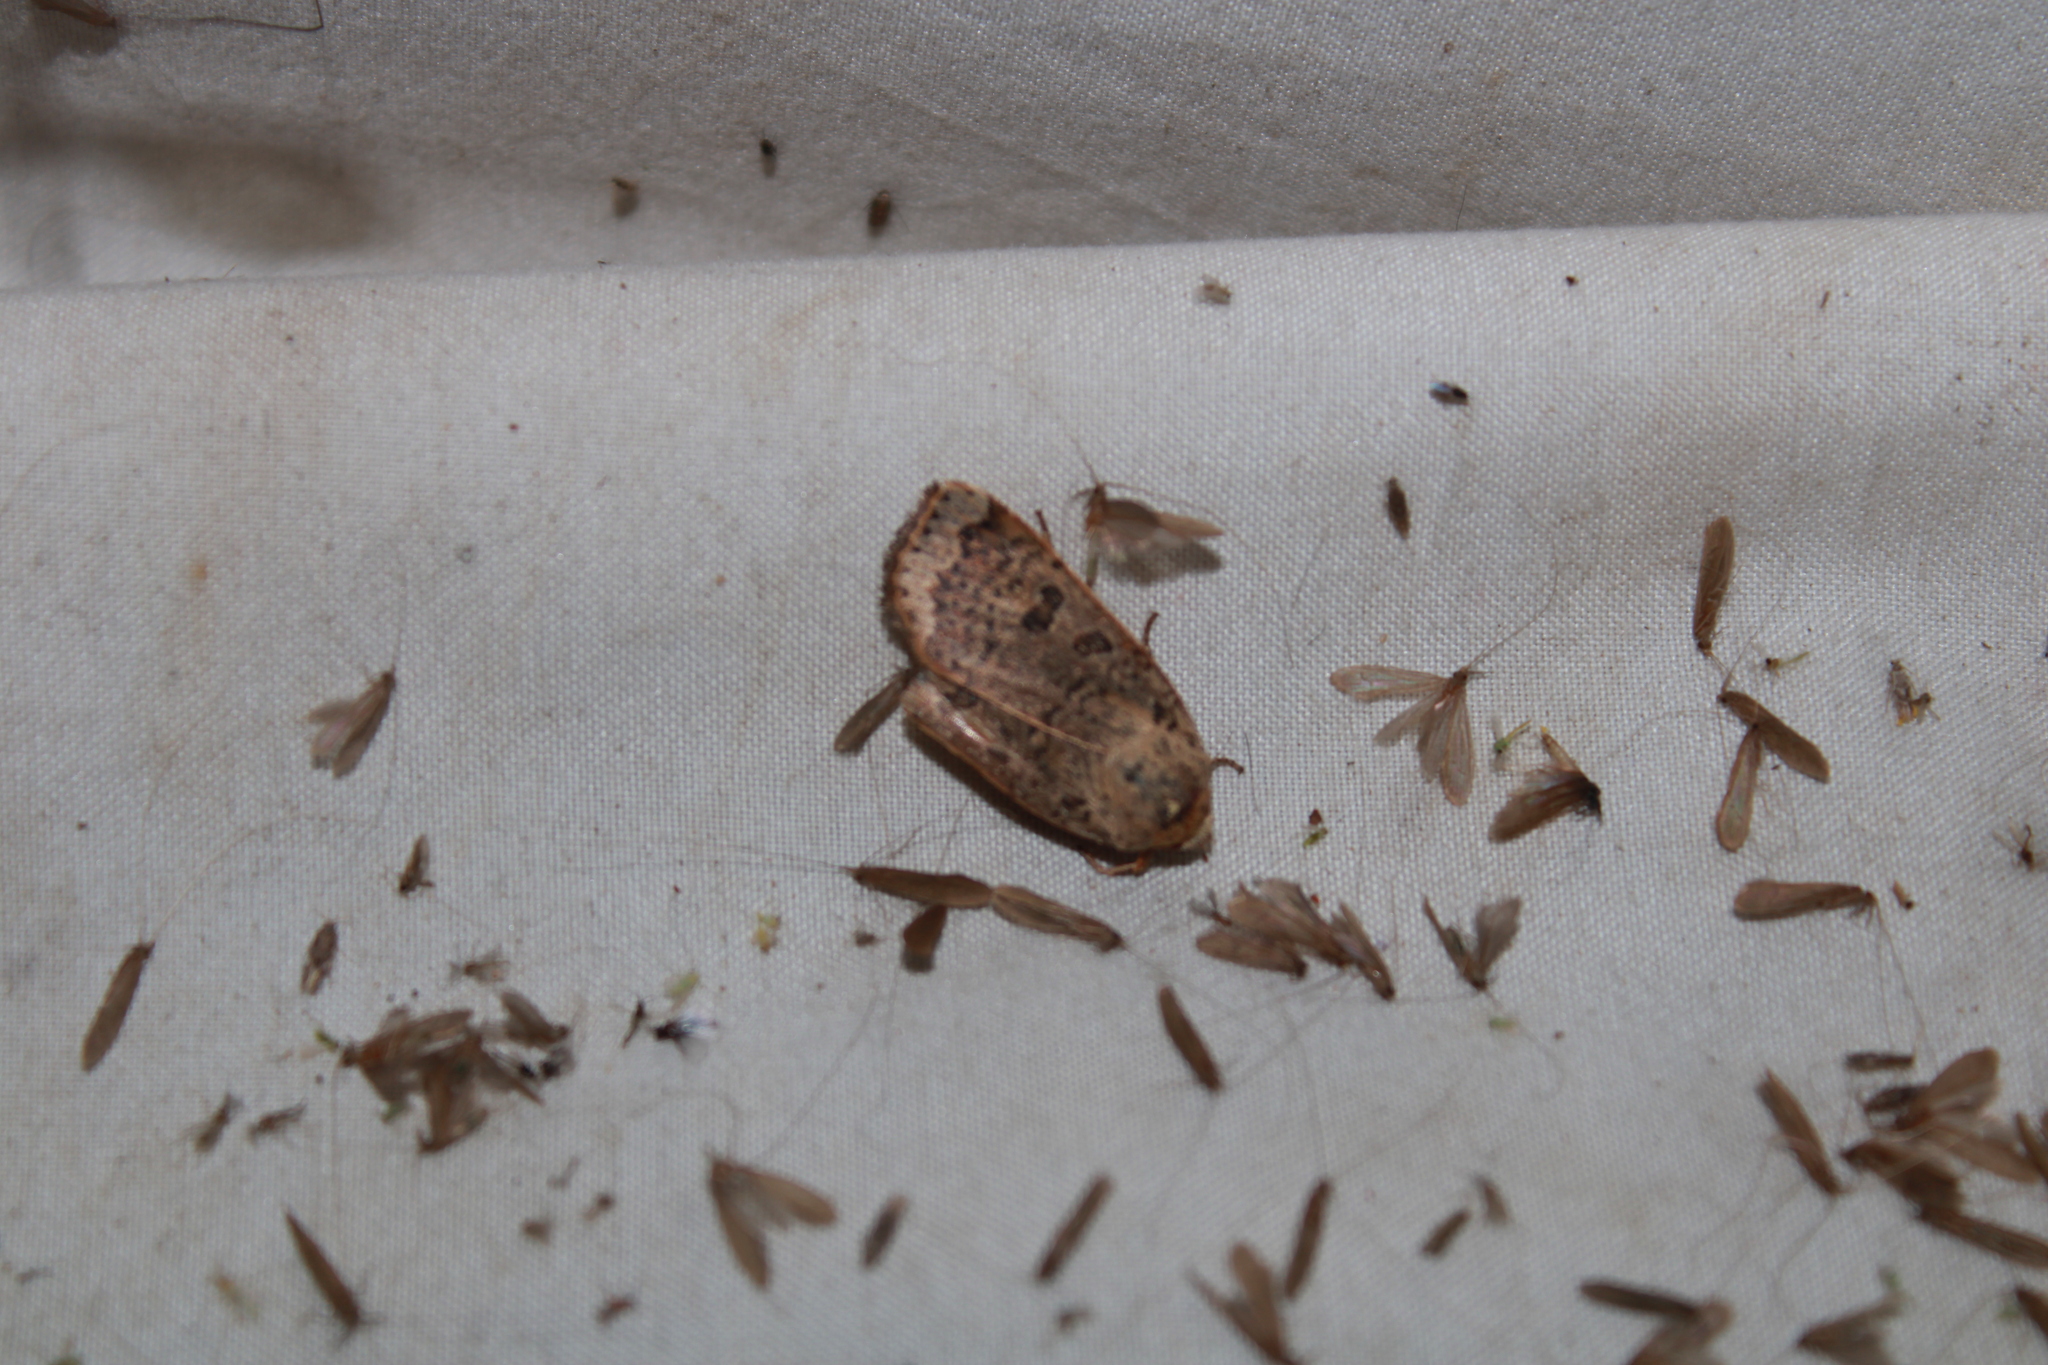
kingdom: Animalia
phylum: Arthropoda
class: Insecta
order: Lepidoptera
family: Noctuidae
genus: Abagrotis
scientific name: Abagrotis alternata
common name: Greater red dart
